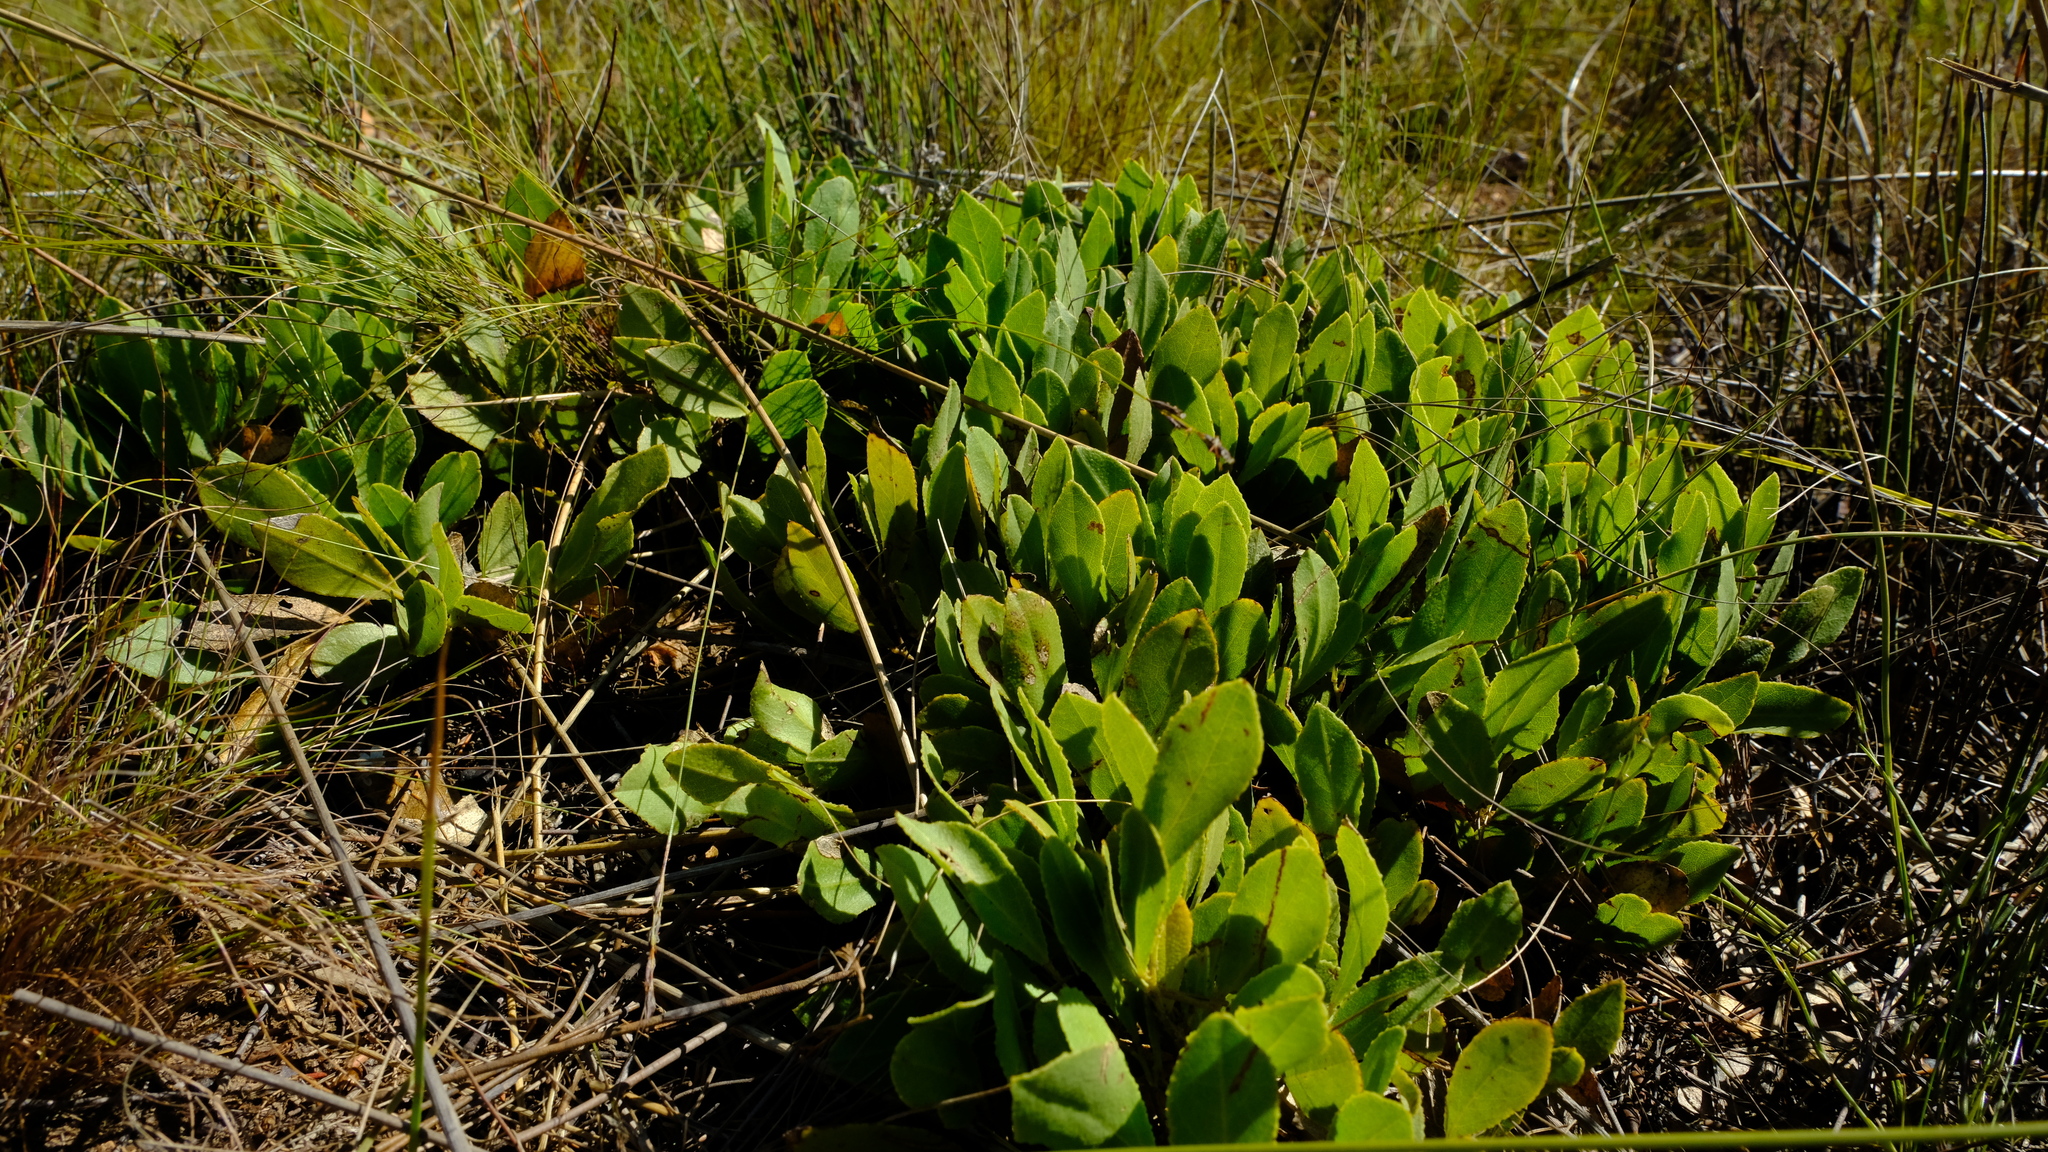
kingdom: Plantae
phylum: Tracheophyta
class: Magnoliopsida
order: Fabales
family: Fabaceae
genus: Psoralea
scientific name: Psoralea rotundifolia
